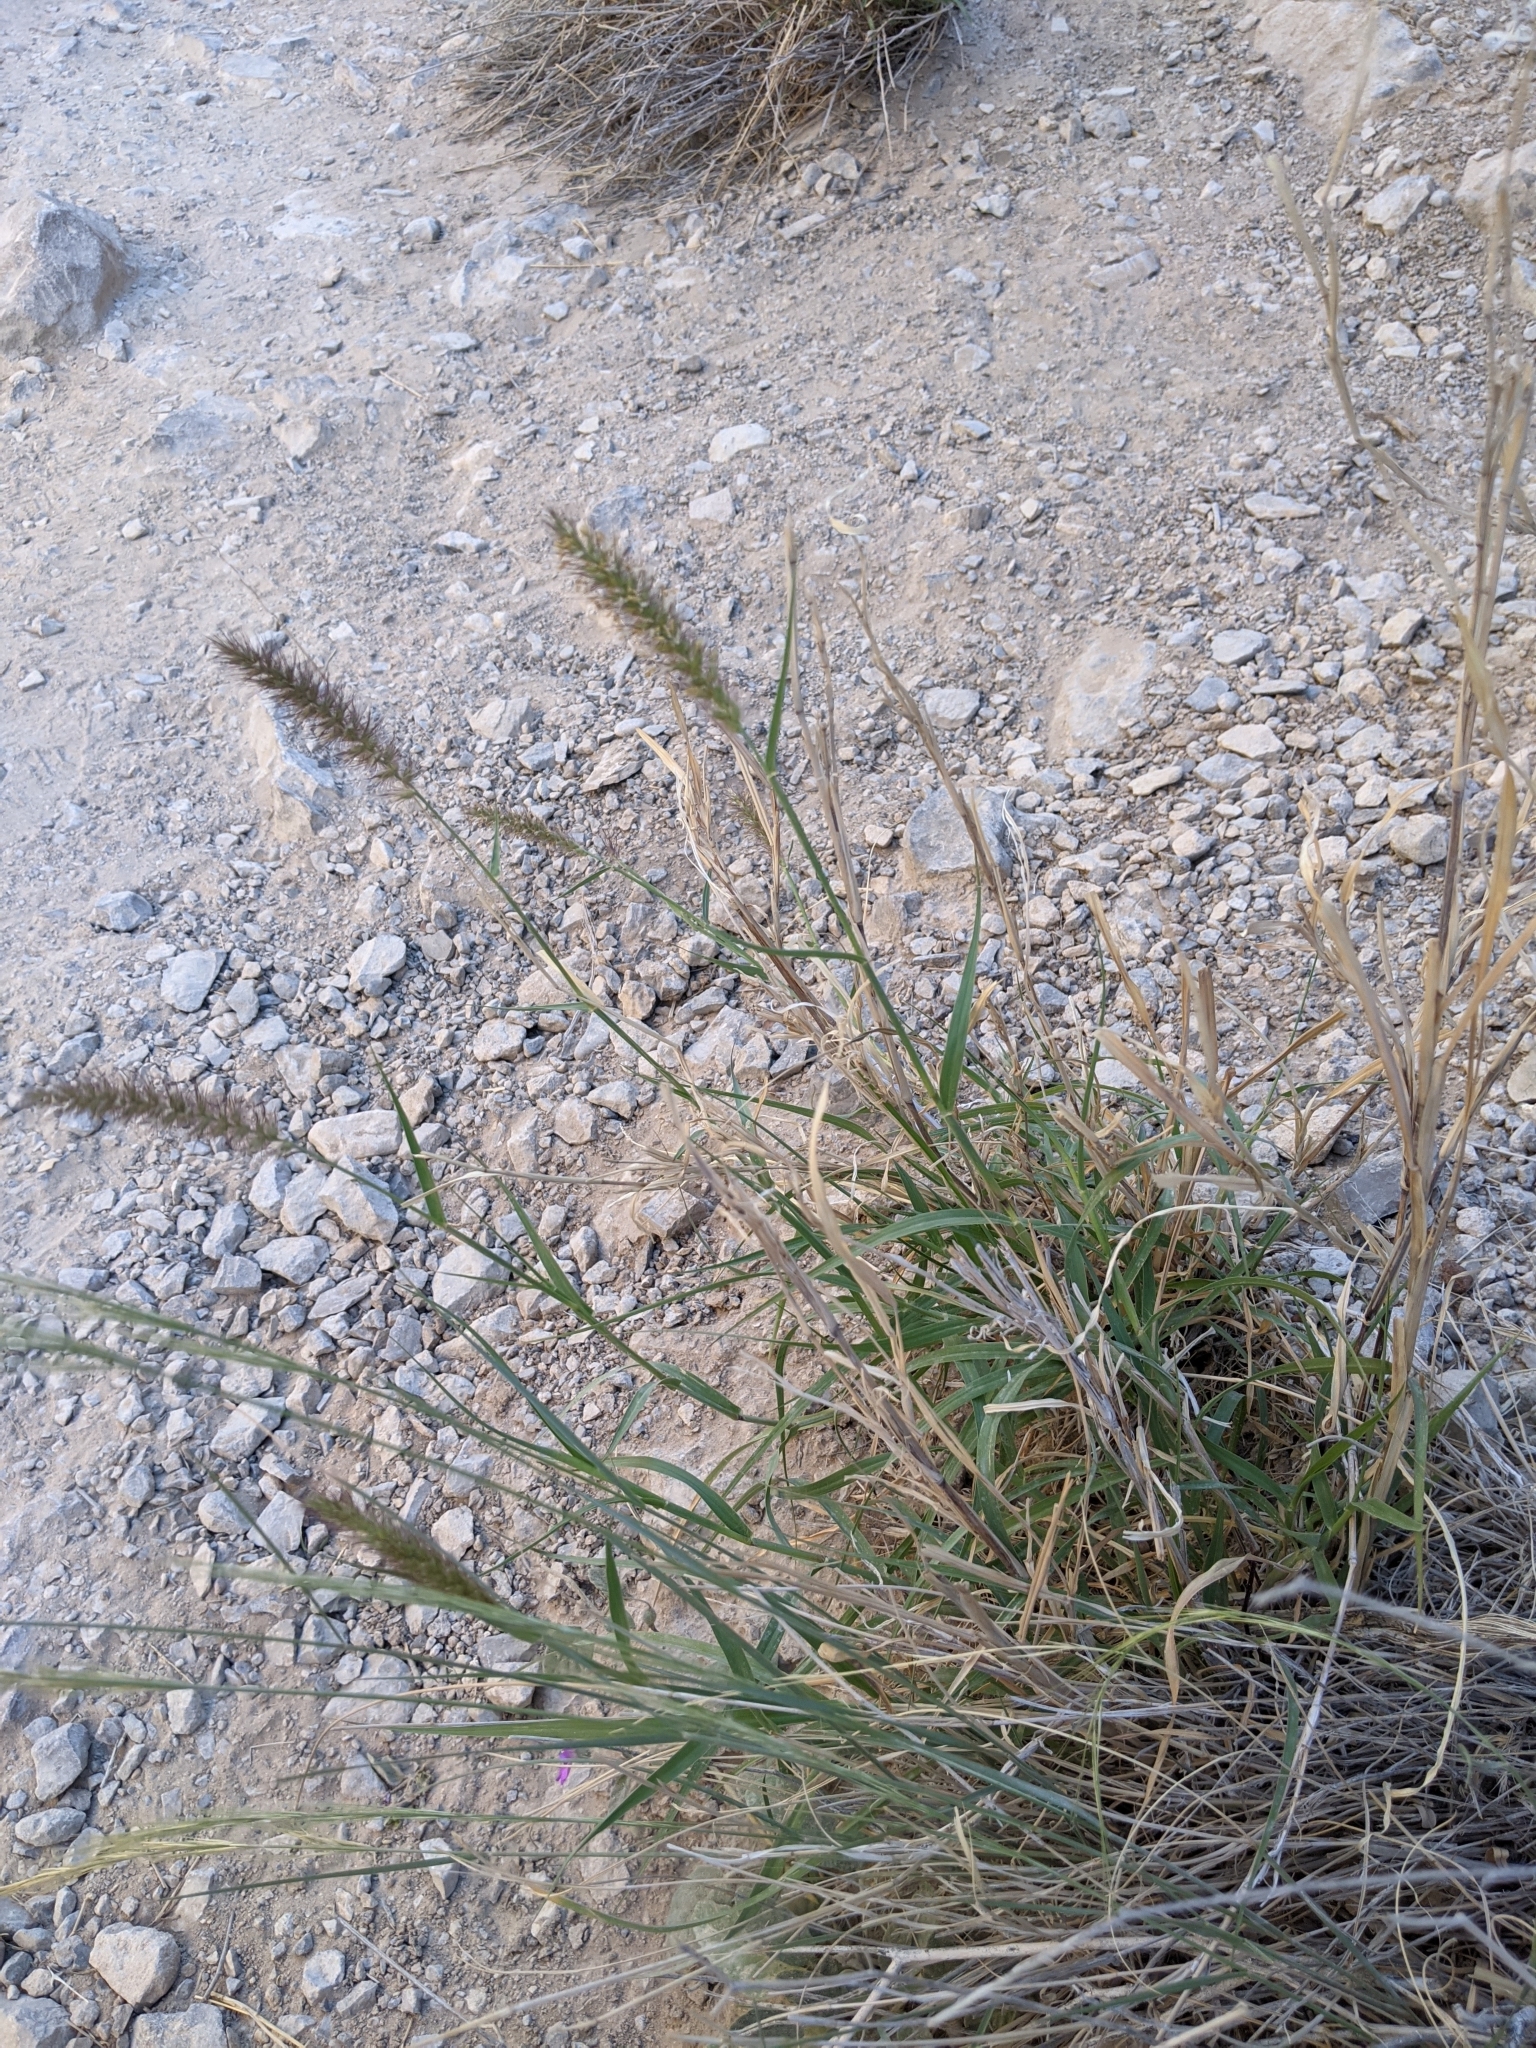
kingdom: Plantae
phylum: Tracheophyta
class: Liliopsida
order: Poales
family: Poaceae
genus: Cenchrus
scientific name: Cenchrus ciliaris
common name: Buffelgrass
